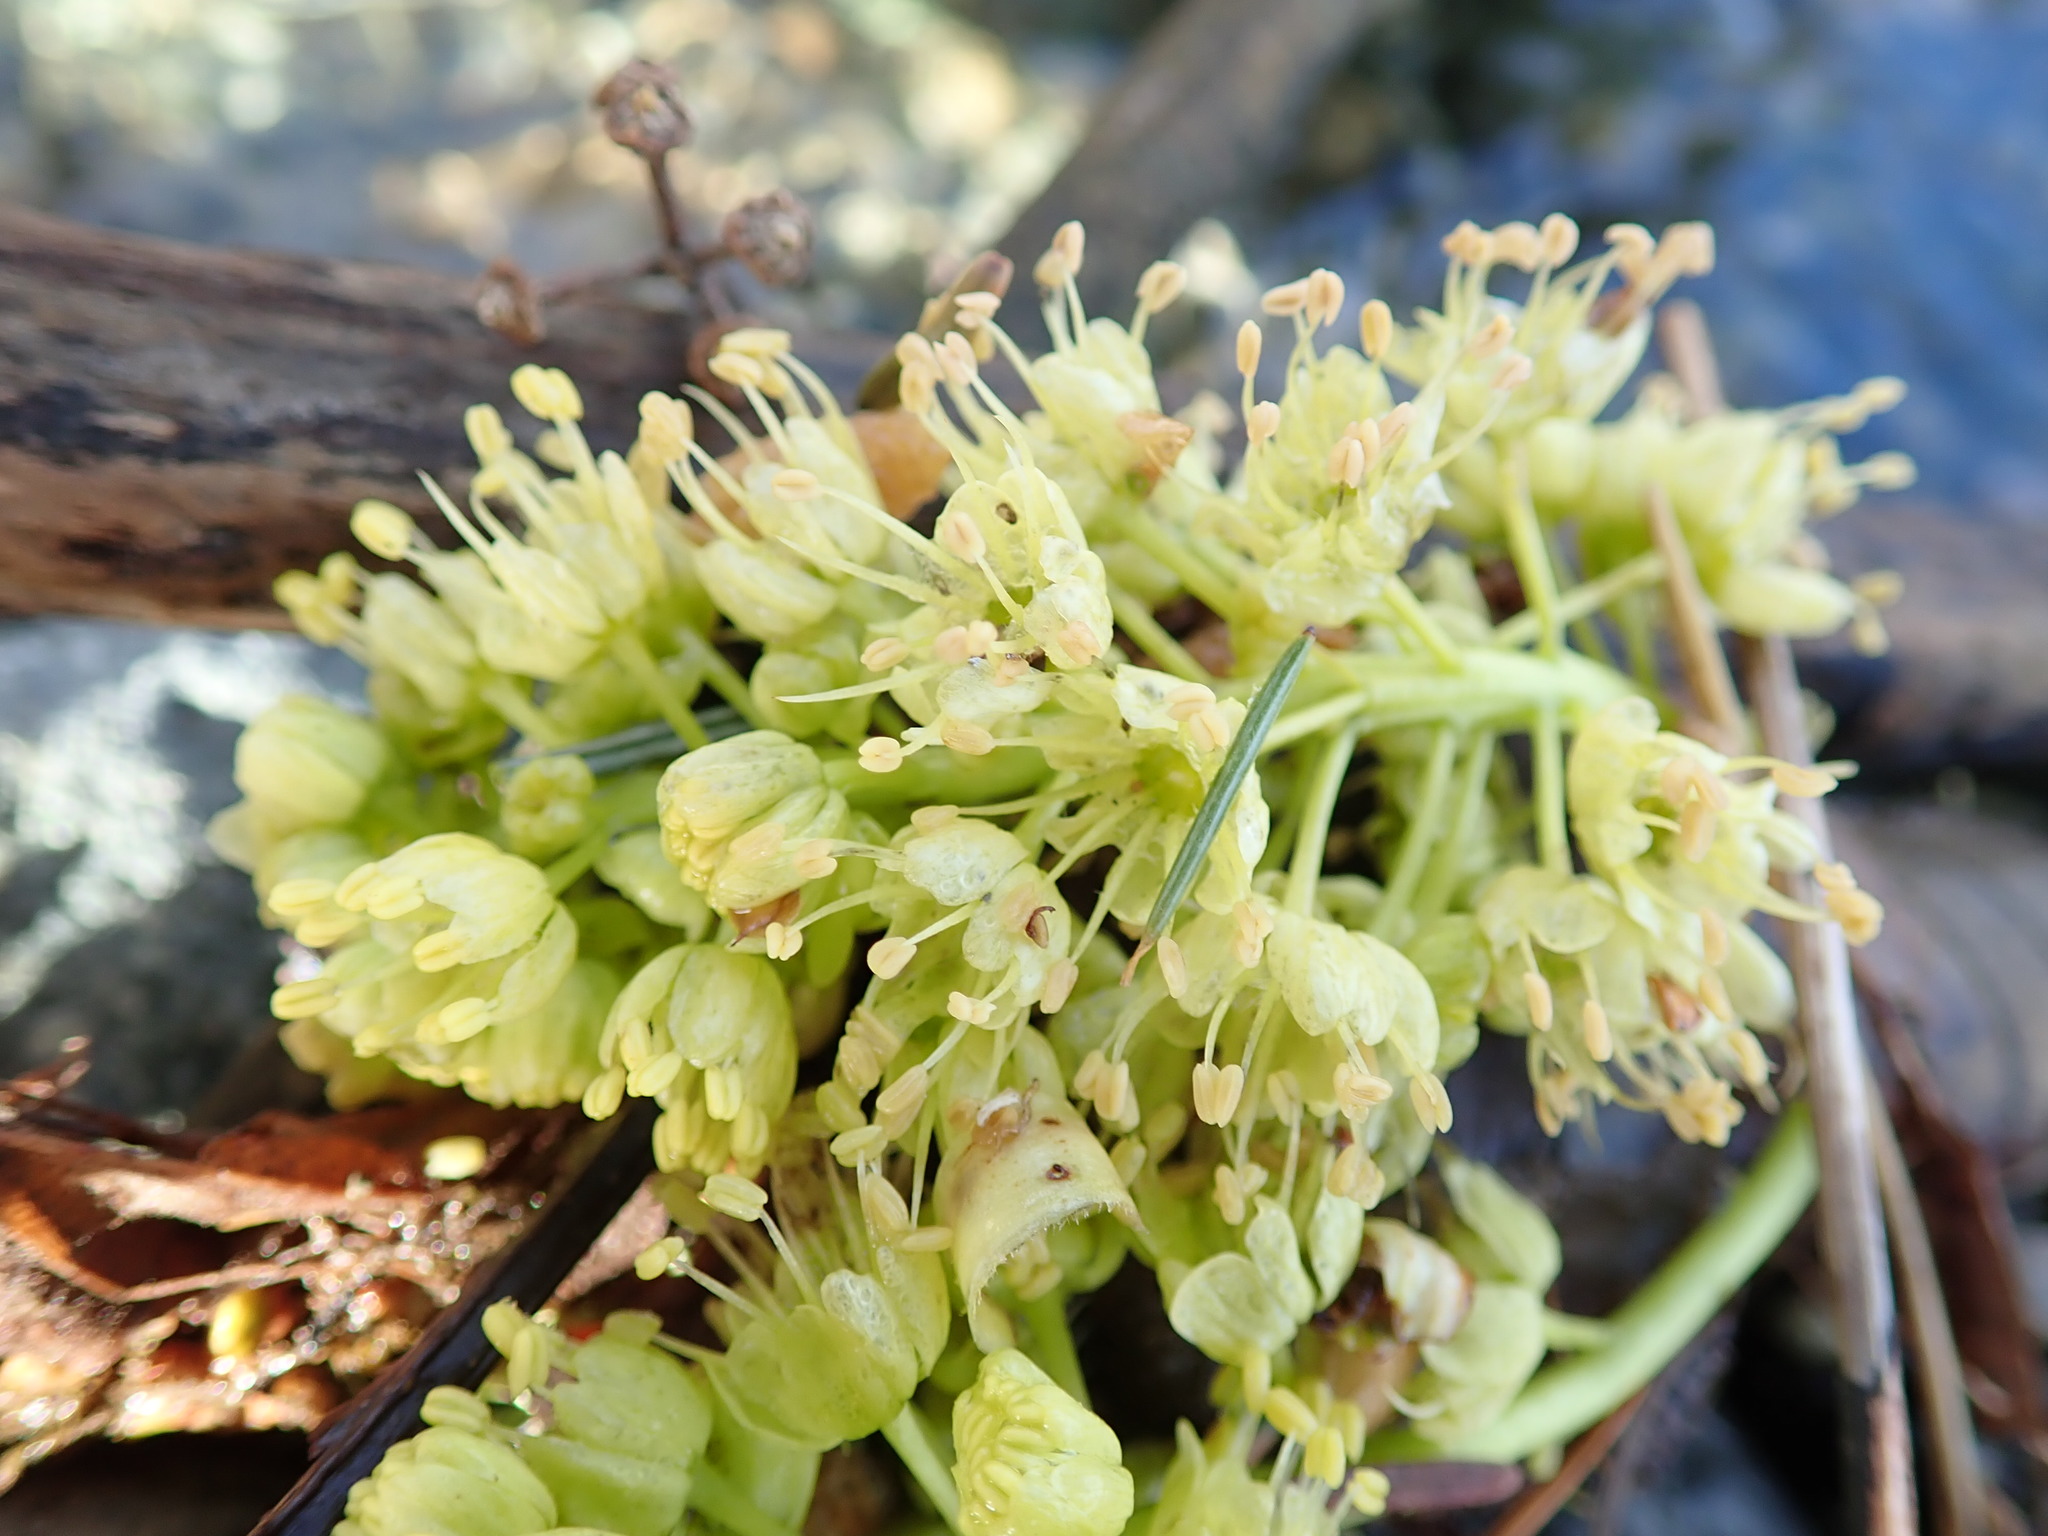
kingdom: Plantae
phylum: Tracheophyta
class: Magnoliopsida
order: Sapindales
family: Sapindaceae
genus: Acer
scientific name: Acer macrophyllum
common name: Oregon maple
